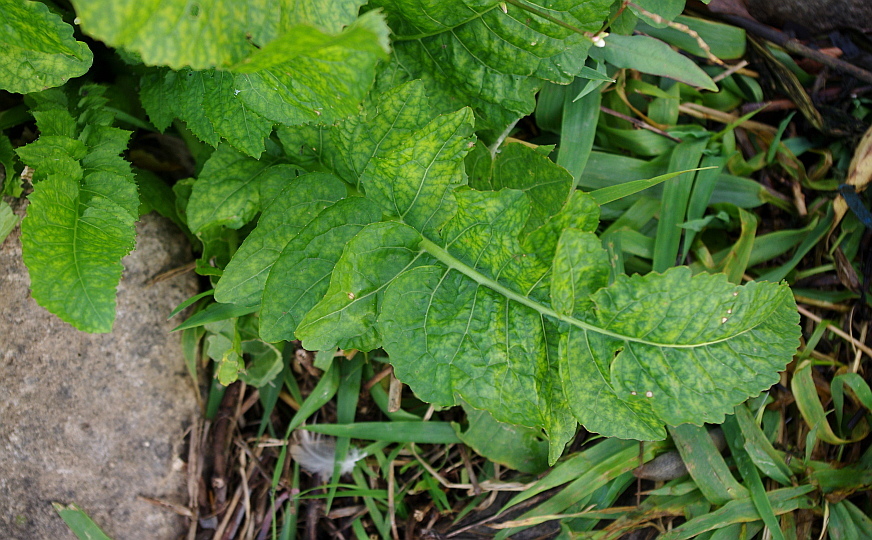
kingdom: Plantae
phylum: Tracheophyta
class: Magnoliopsida
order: Brassicales
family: Brassicaceae
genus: Rorippa
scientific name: Rorippa amphibia
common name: Great yellow-cress
